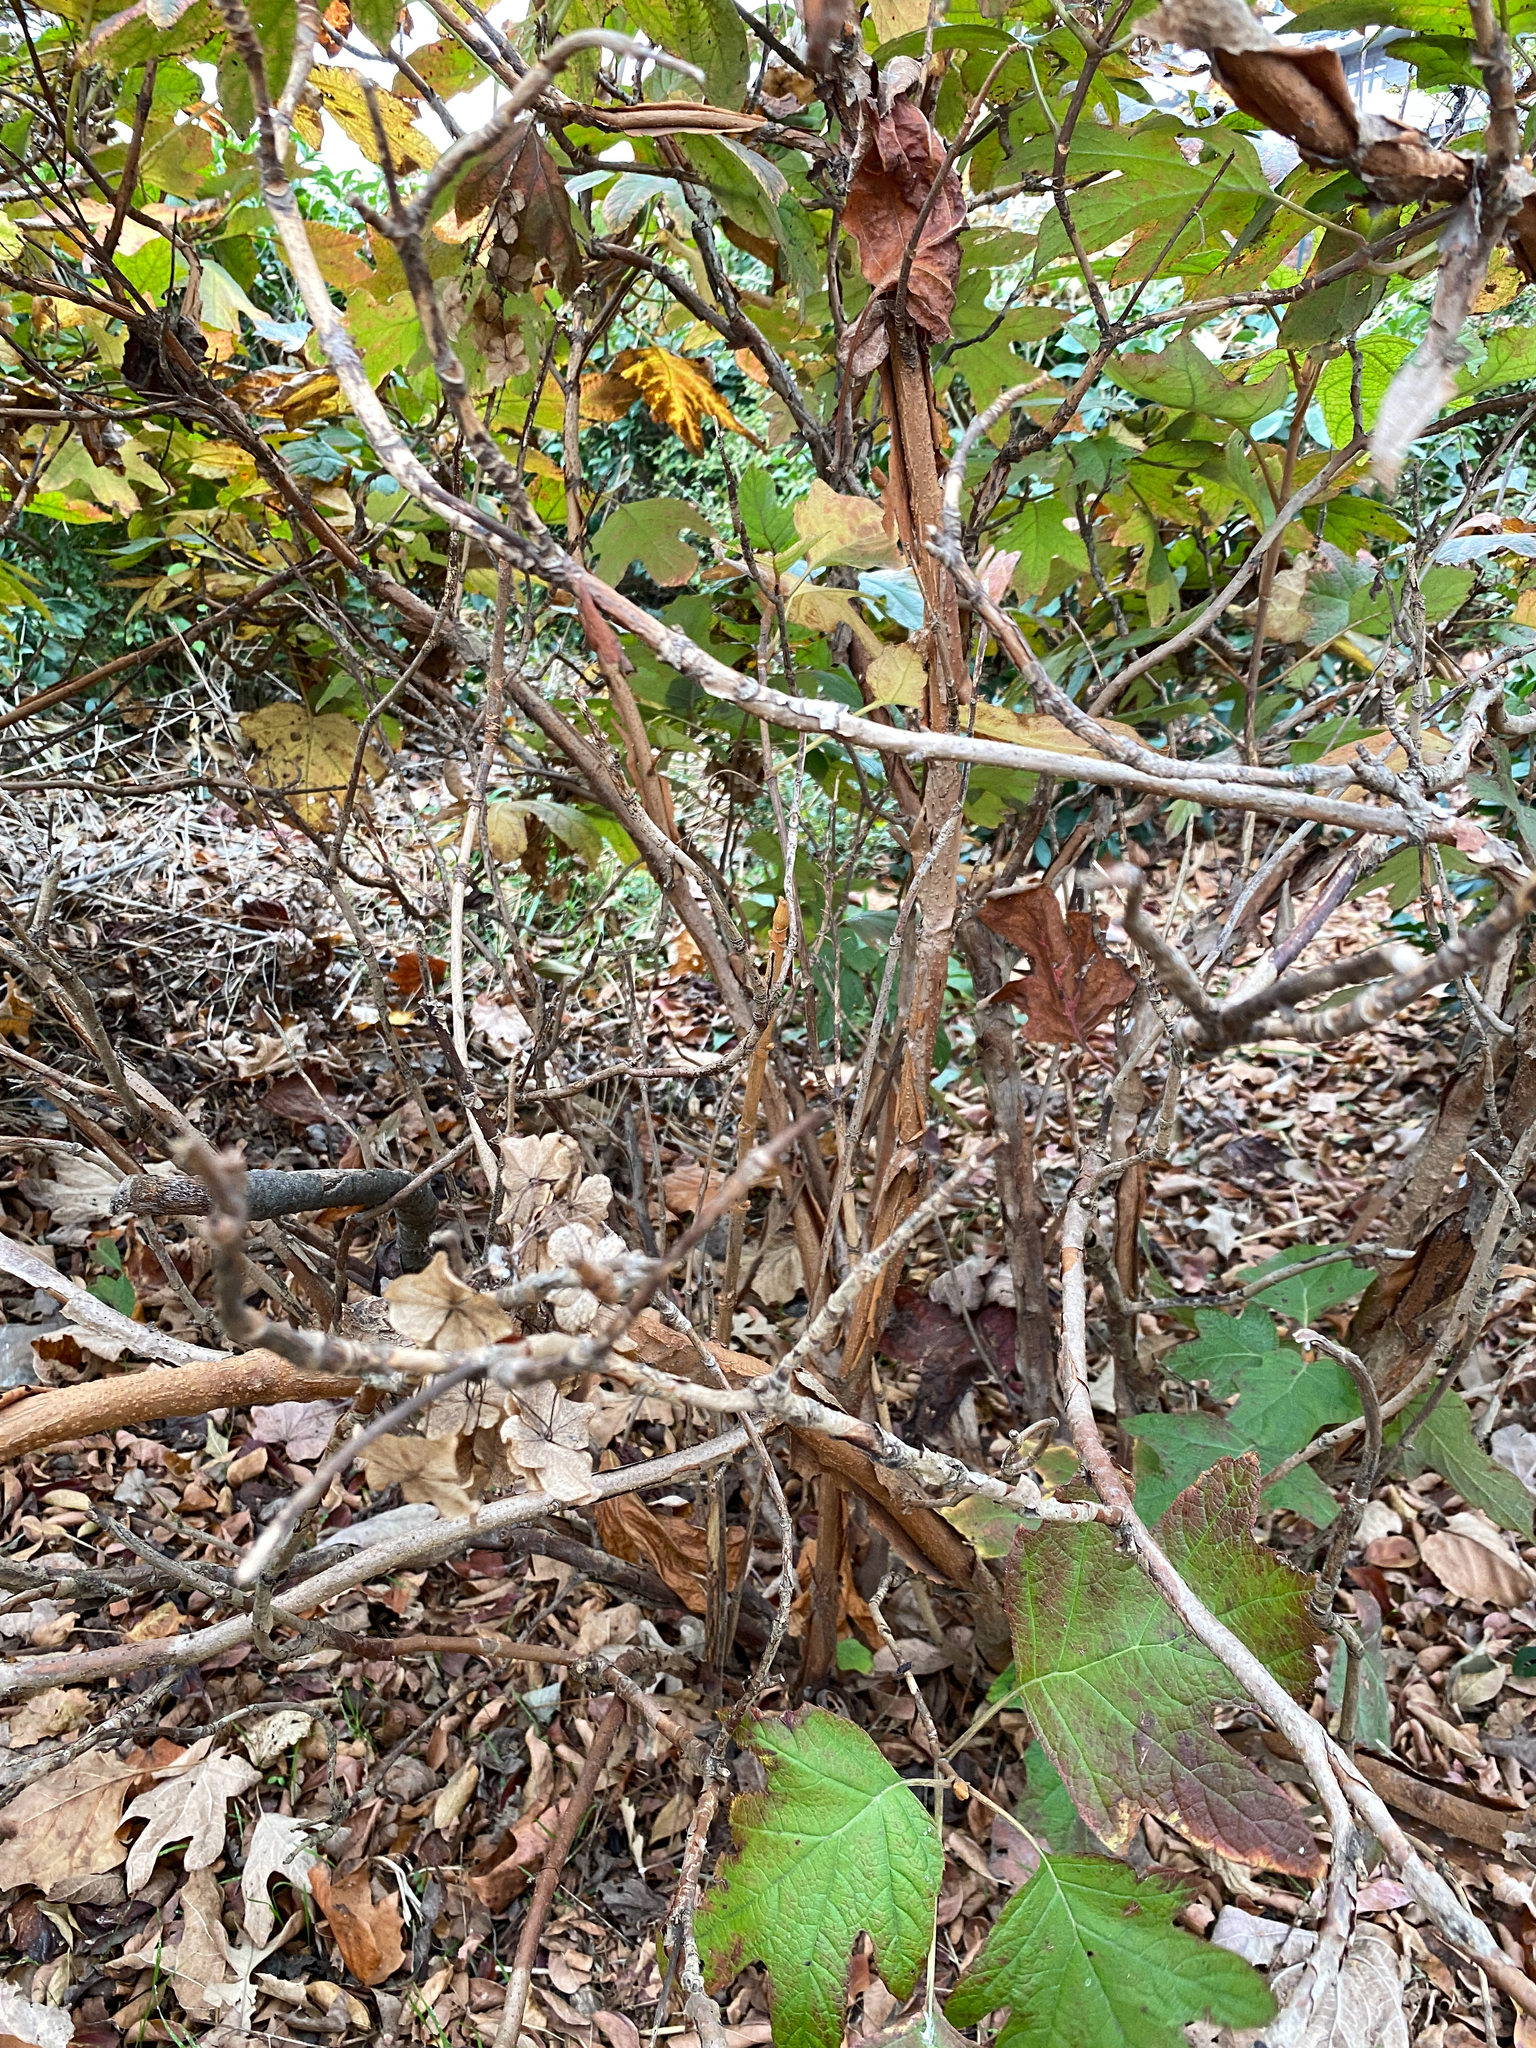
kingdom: Plantae
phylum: Tracheophyta
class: Magnoliopsida
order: Cornales
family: Hydrangeaceae
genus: Hydrangea
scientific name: Hydrangea quercifolia
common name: Oak-leaf hydrangea
